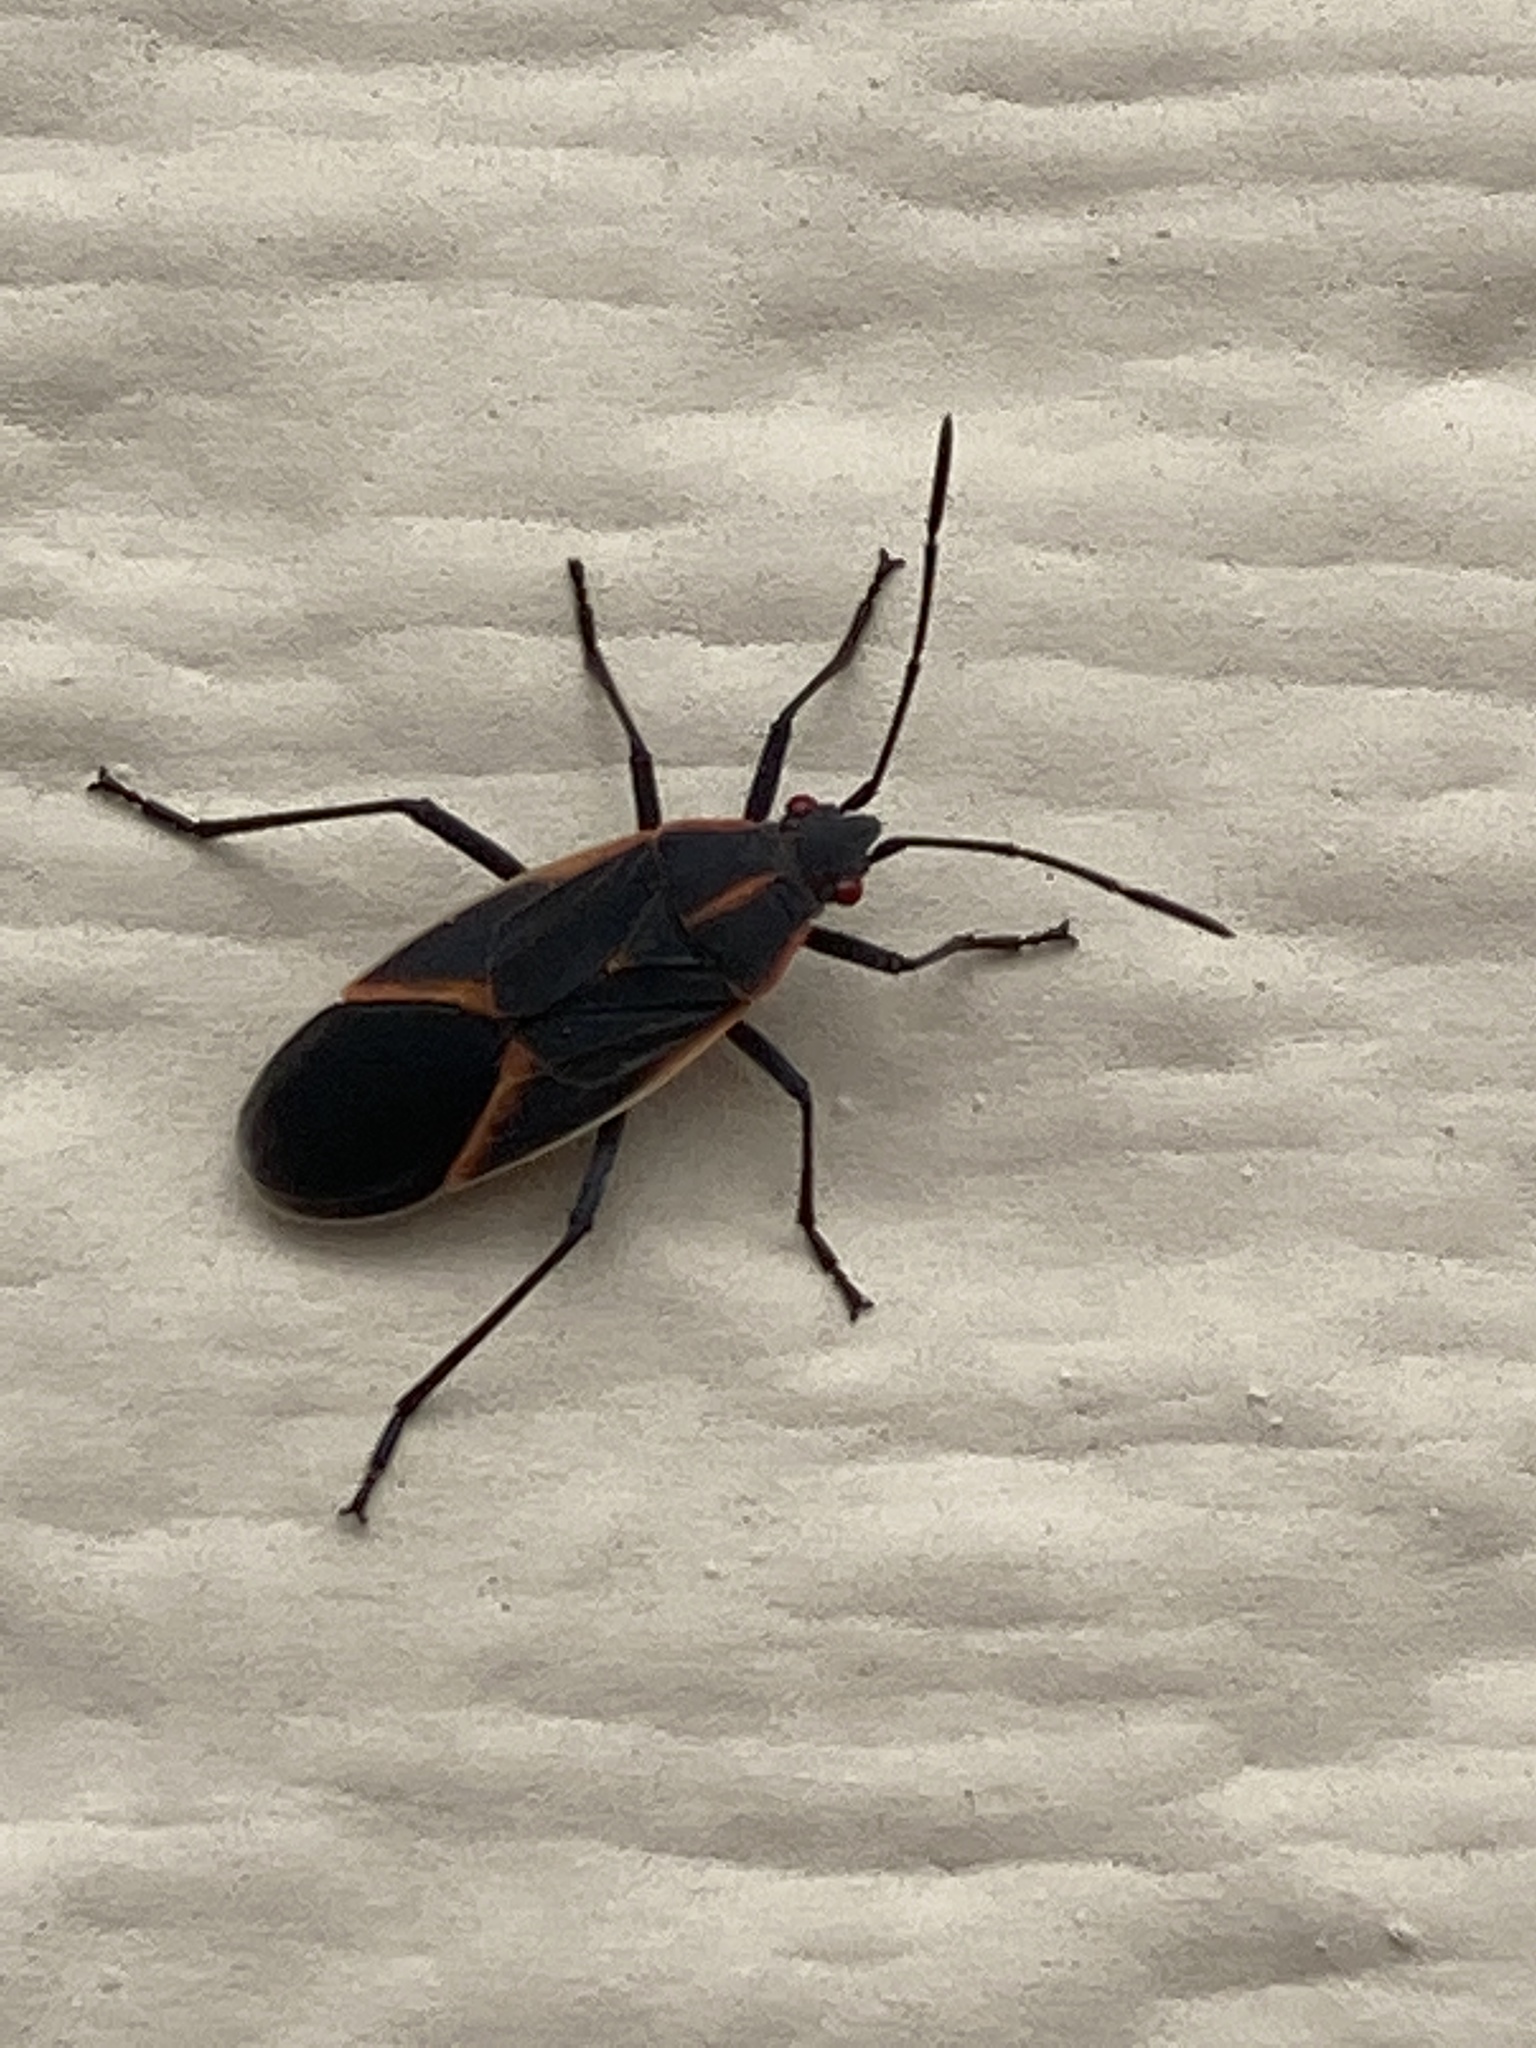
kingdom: Animalia
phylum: Arthropoda
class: Insecta
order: Hemiptera
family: Rhopalidae
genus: Boisea
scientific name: Boisea trivittata
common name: Boxelder bug
